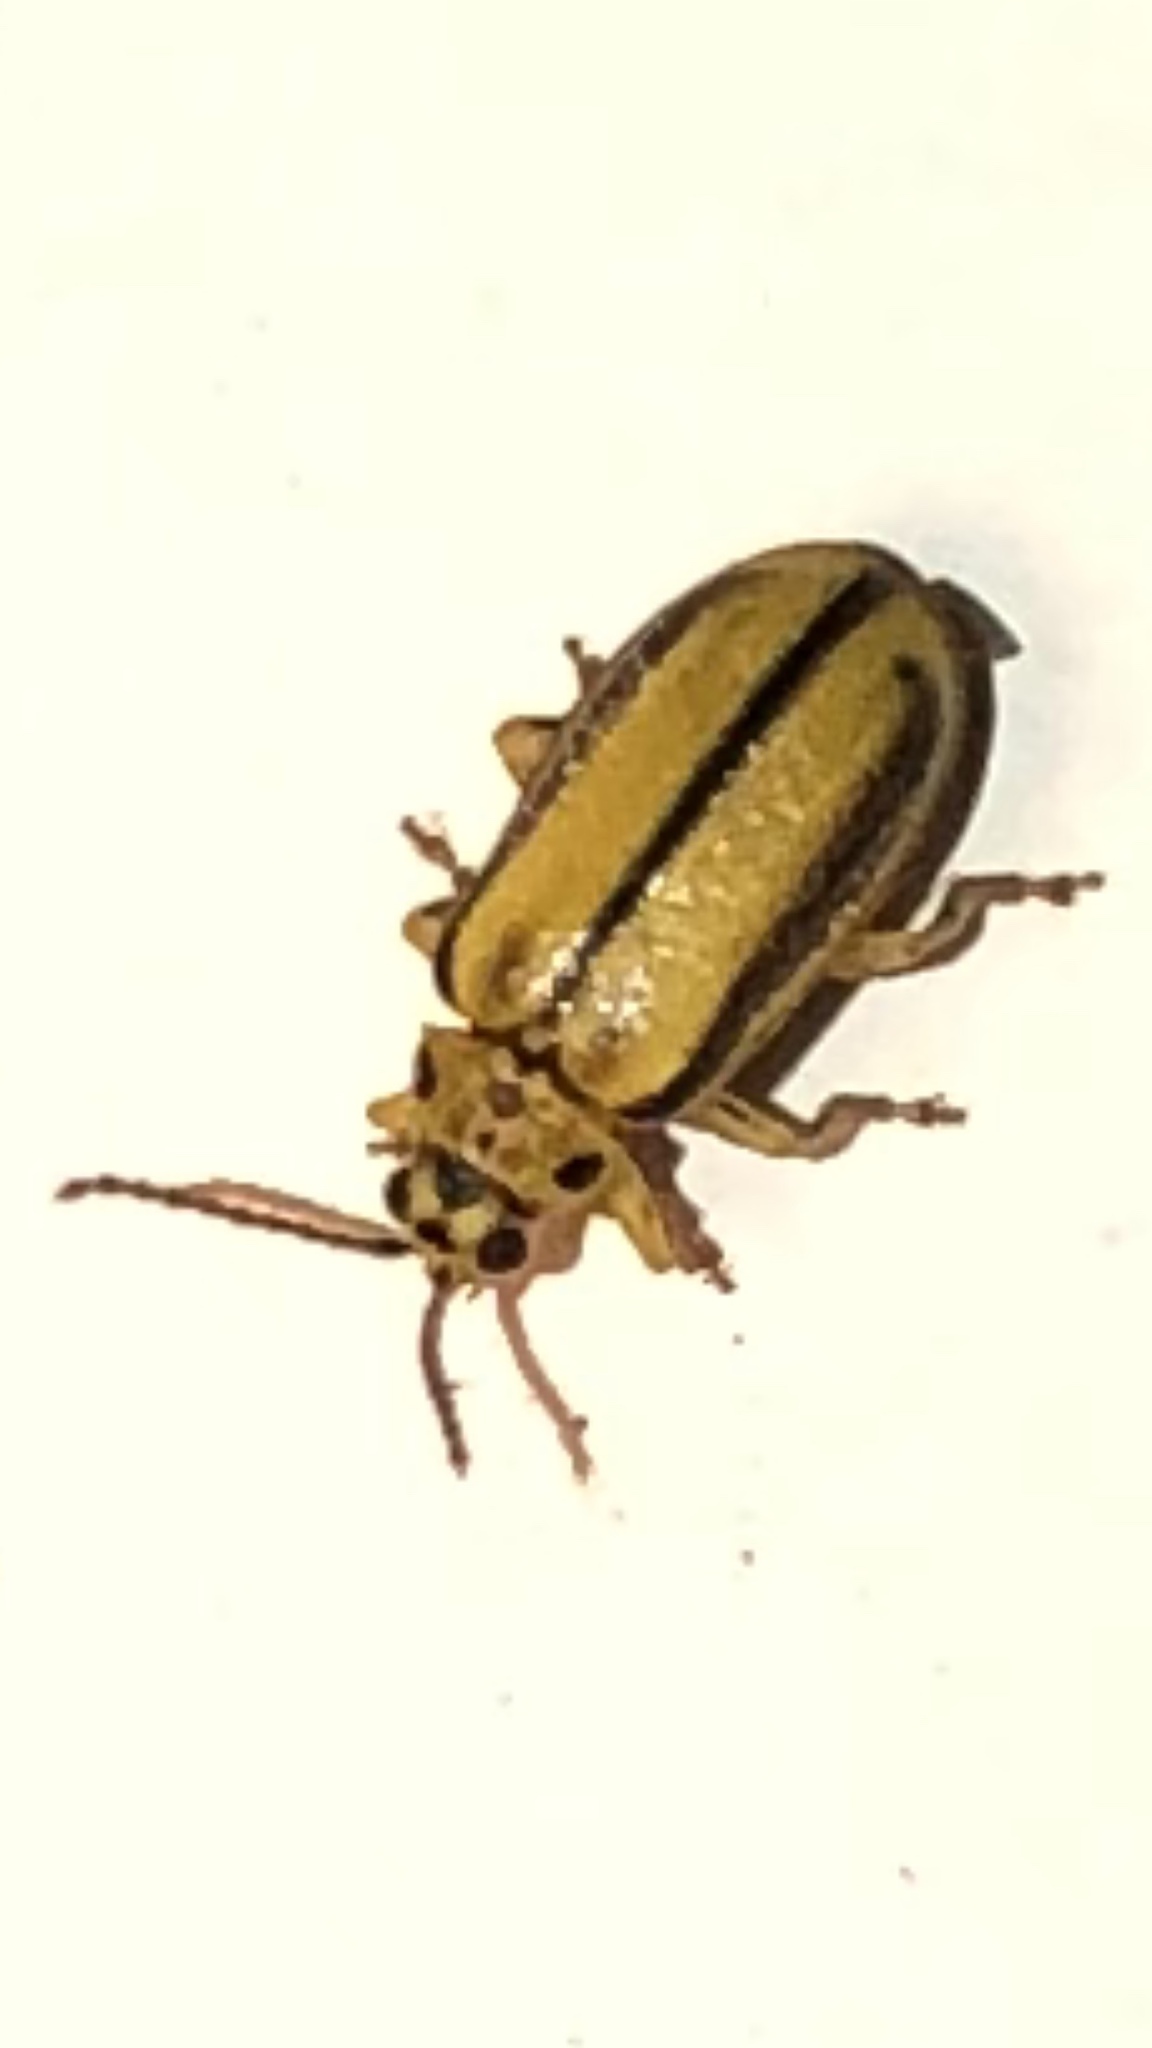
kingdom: Animalia
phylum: Arthropoda
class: Insecta
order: Coleoptera
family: Chrysomelidae
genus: Xanthogaleruca
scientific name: Xanthogaleruca luteola
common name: Elm leaf beetle
